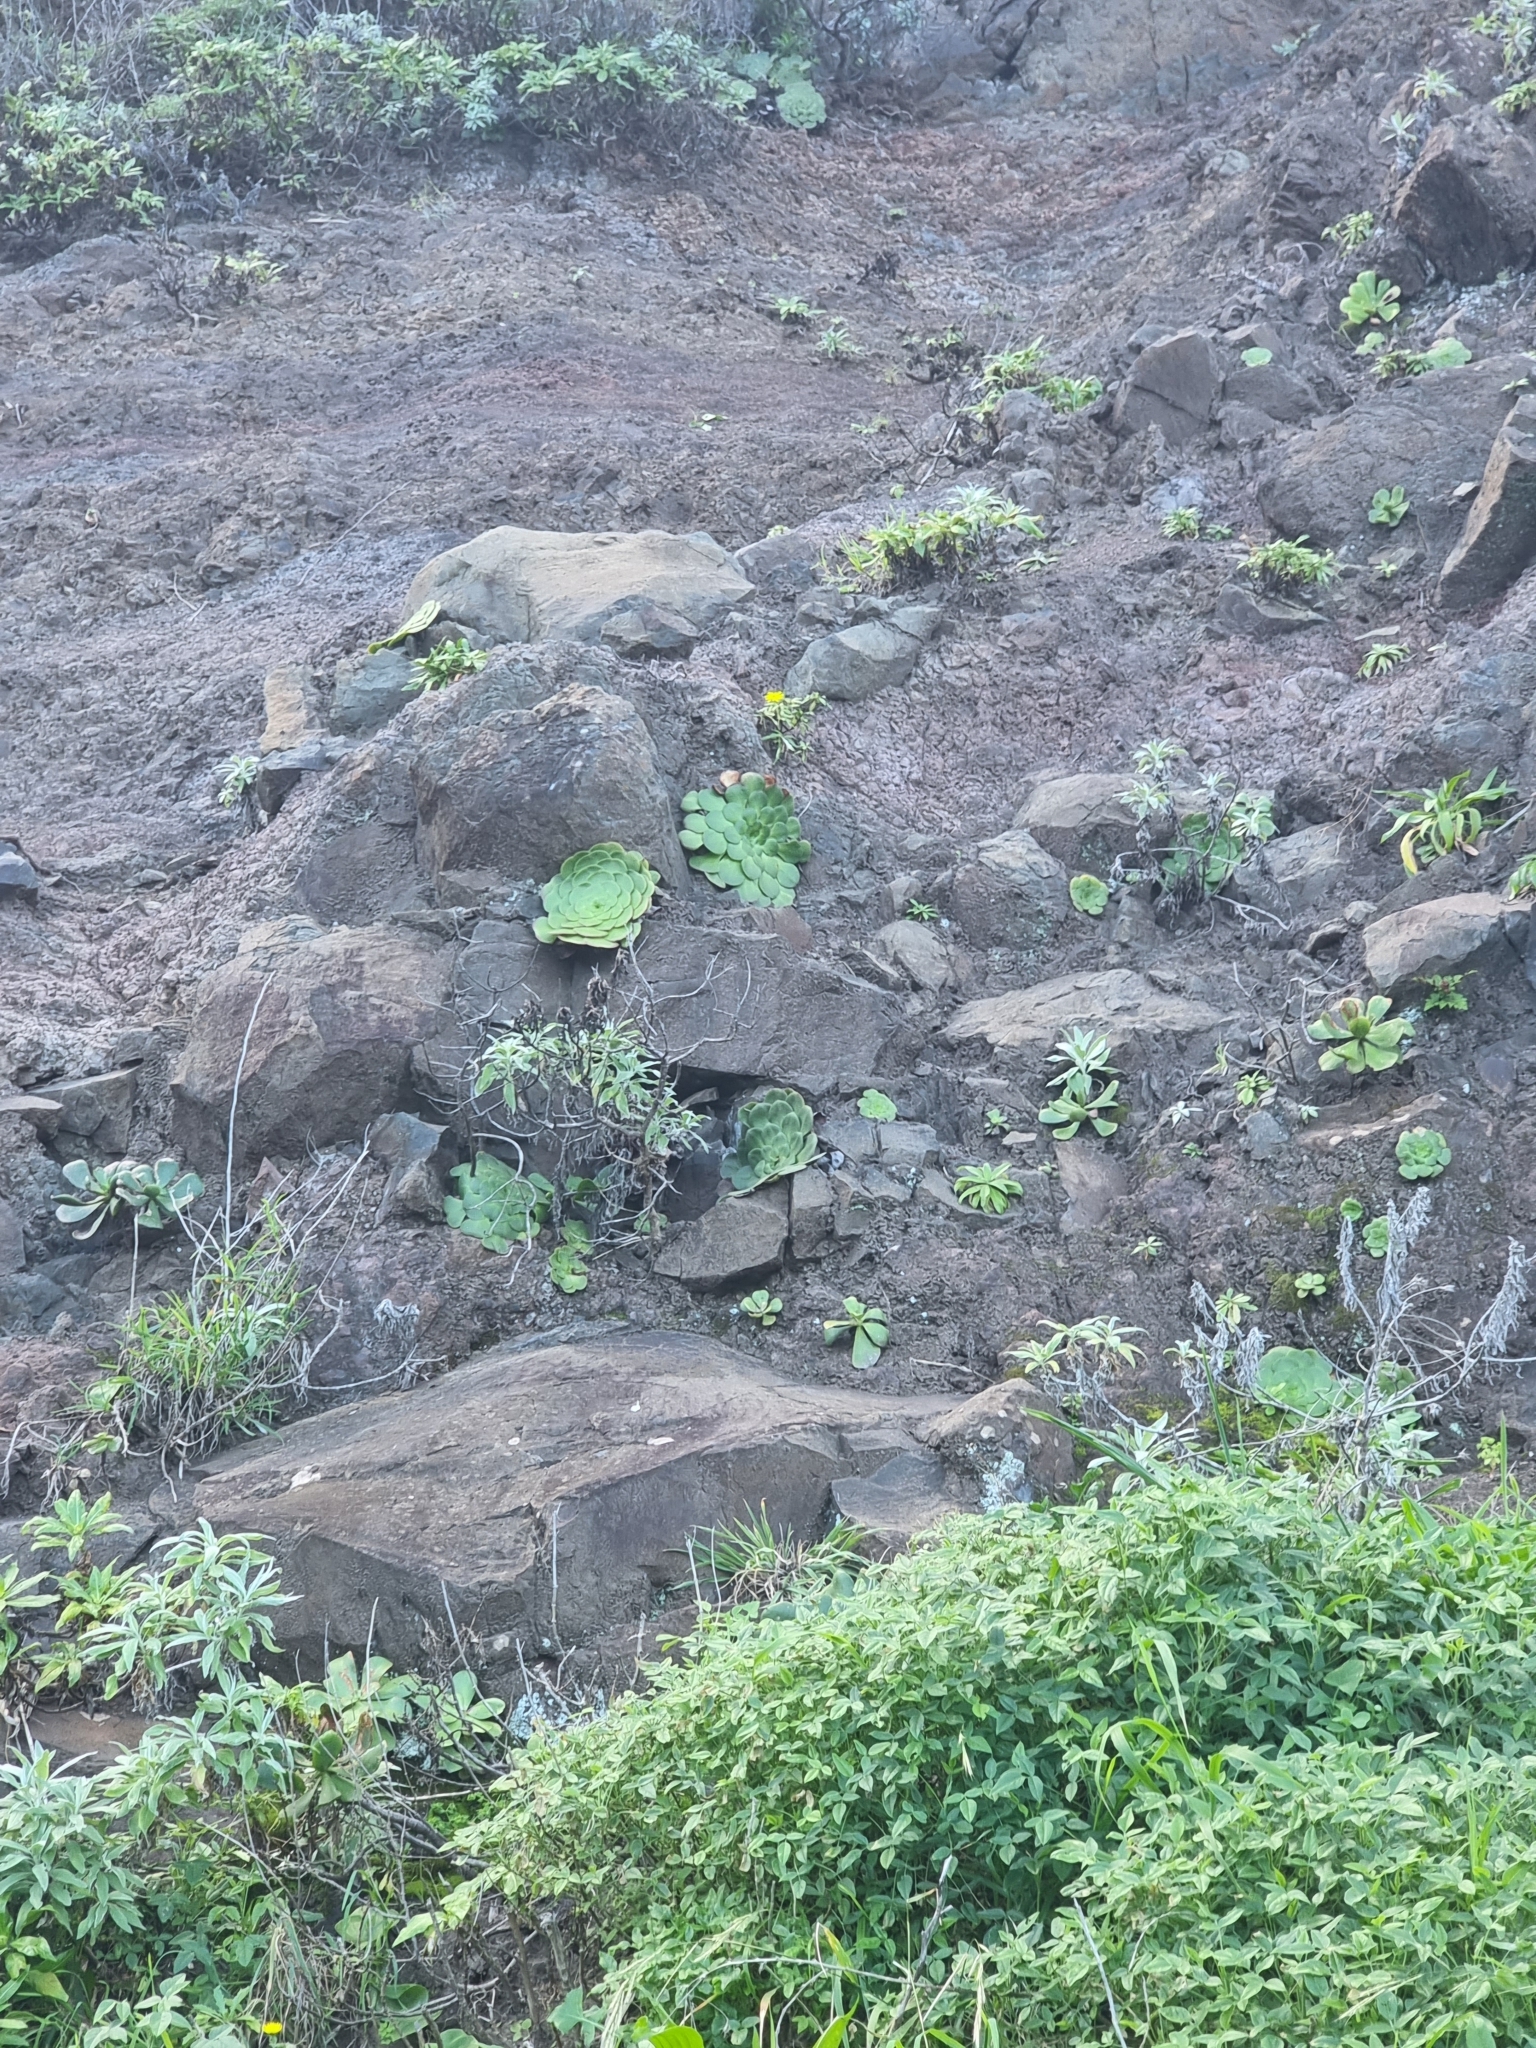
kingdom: Plantae
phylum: Tracheophyta
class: Magnoliopsida
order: Saxifragales
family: Crassulaceae
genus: Aeonium
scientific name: Aeonium glandulosum
